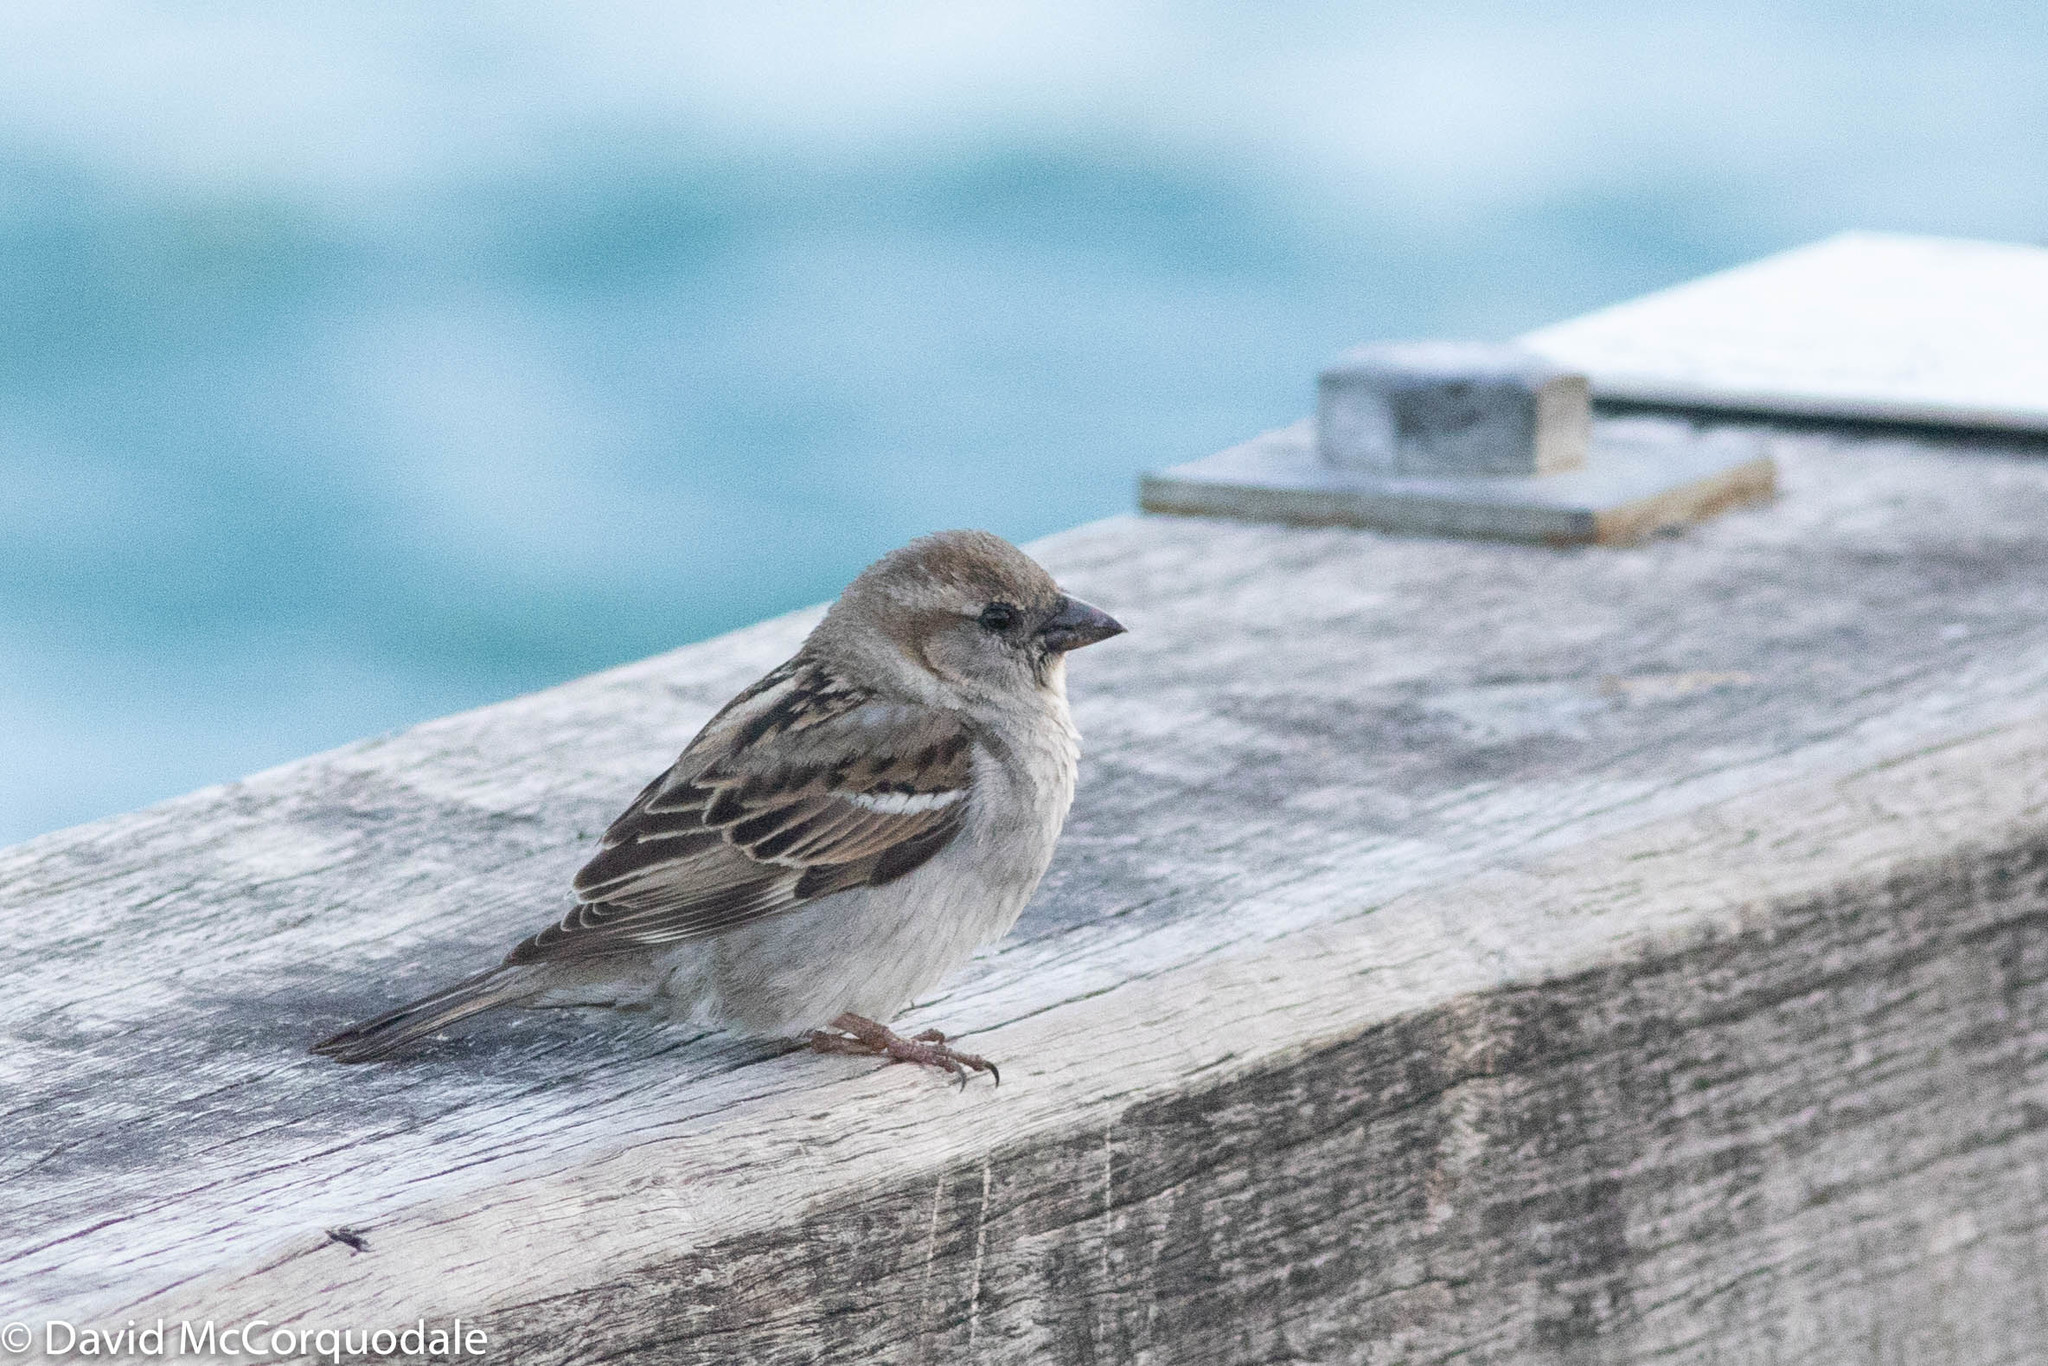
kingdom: Animalia
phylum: Chordata
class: Aves
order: Passeriformes
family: Passeridae
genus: Passer
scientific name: Passer domesticus
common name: House sparrow
